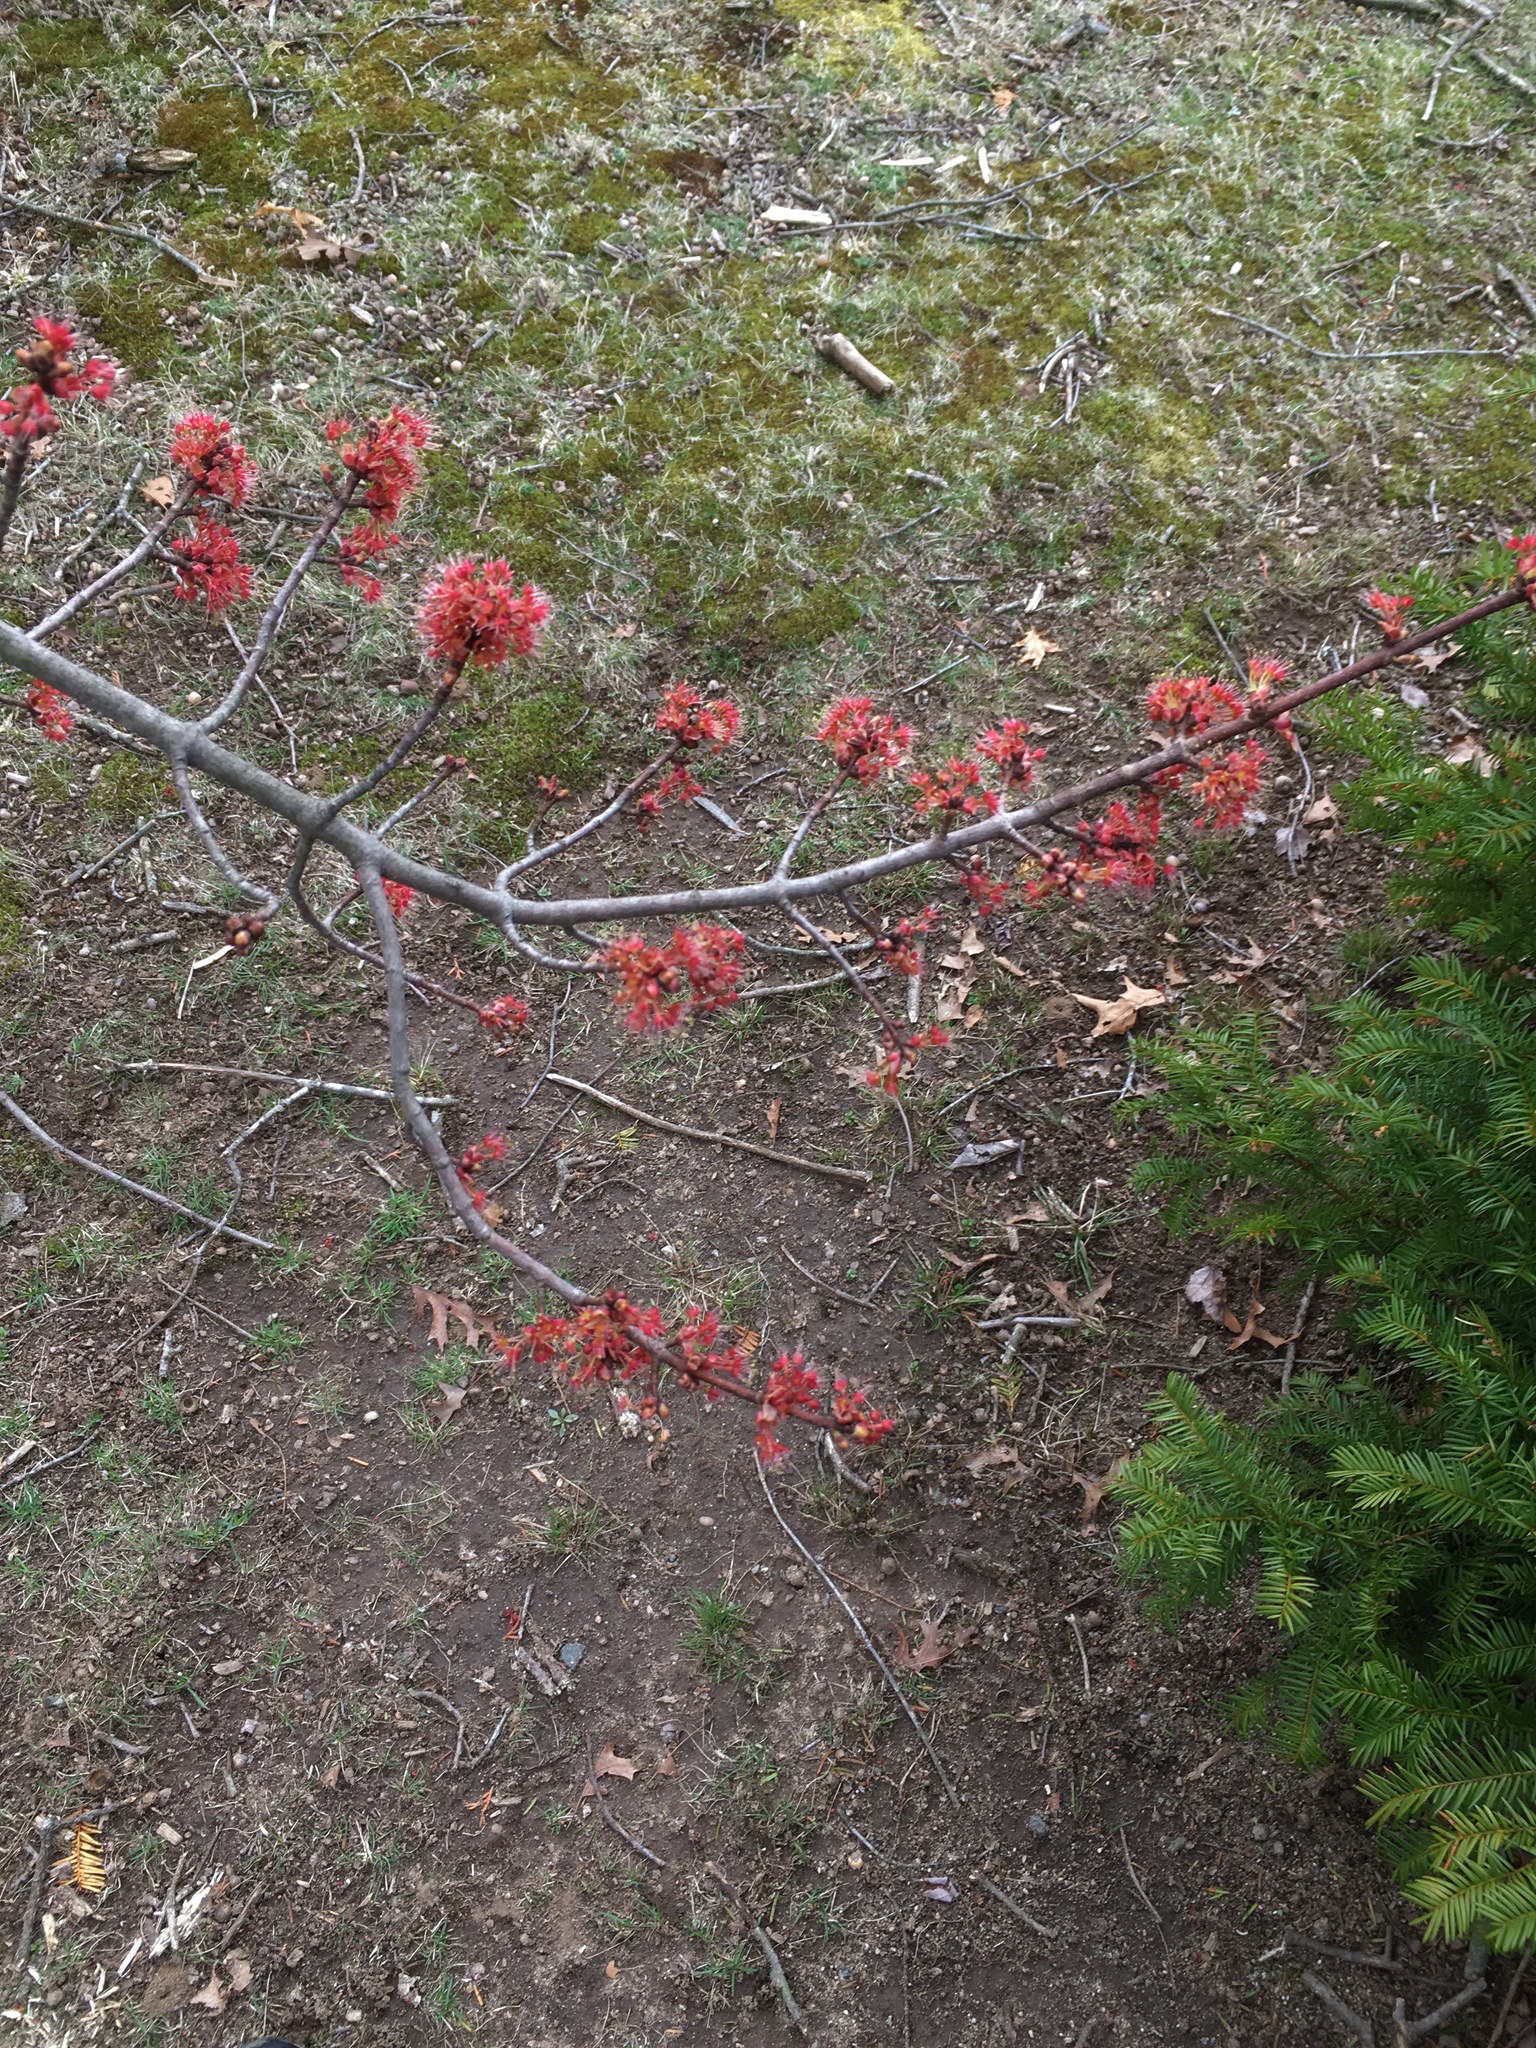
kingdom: Plantae
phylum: Tracheophyta
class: Magnoliopsida
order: Sapindales
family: Sapindaceae
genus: Acer
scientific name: Acer rubrum
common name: Red maple
